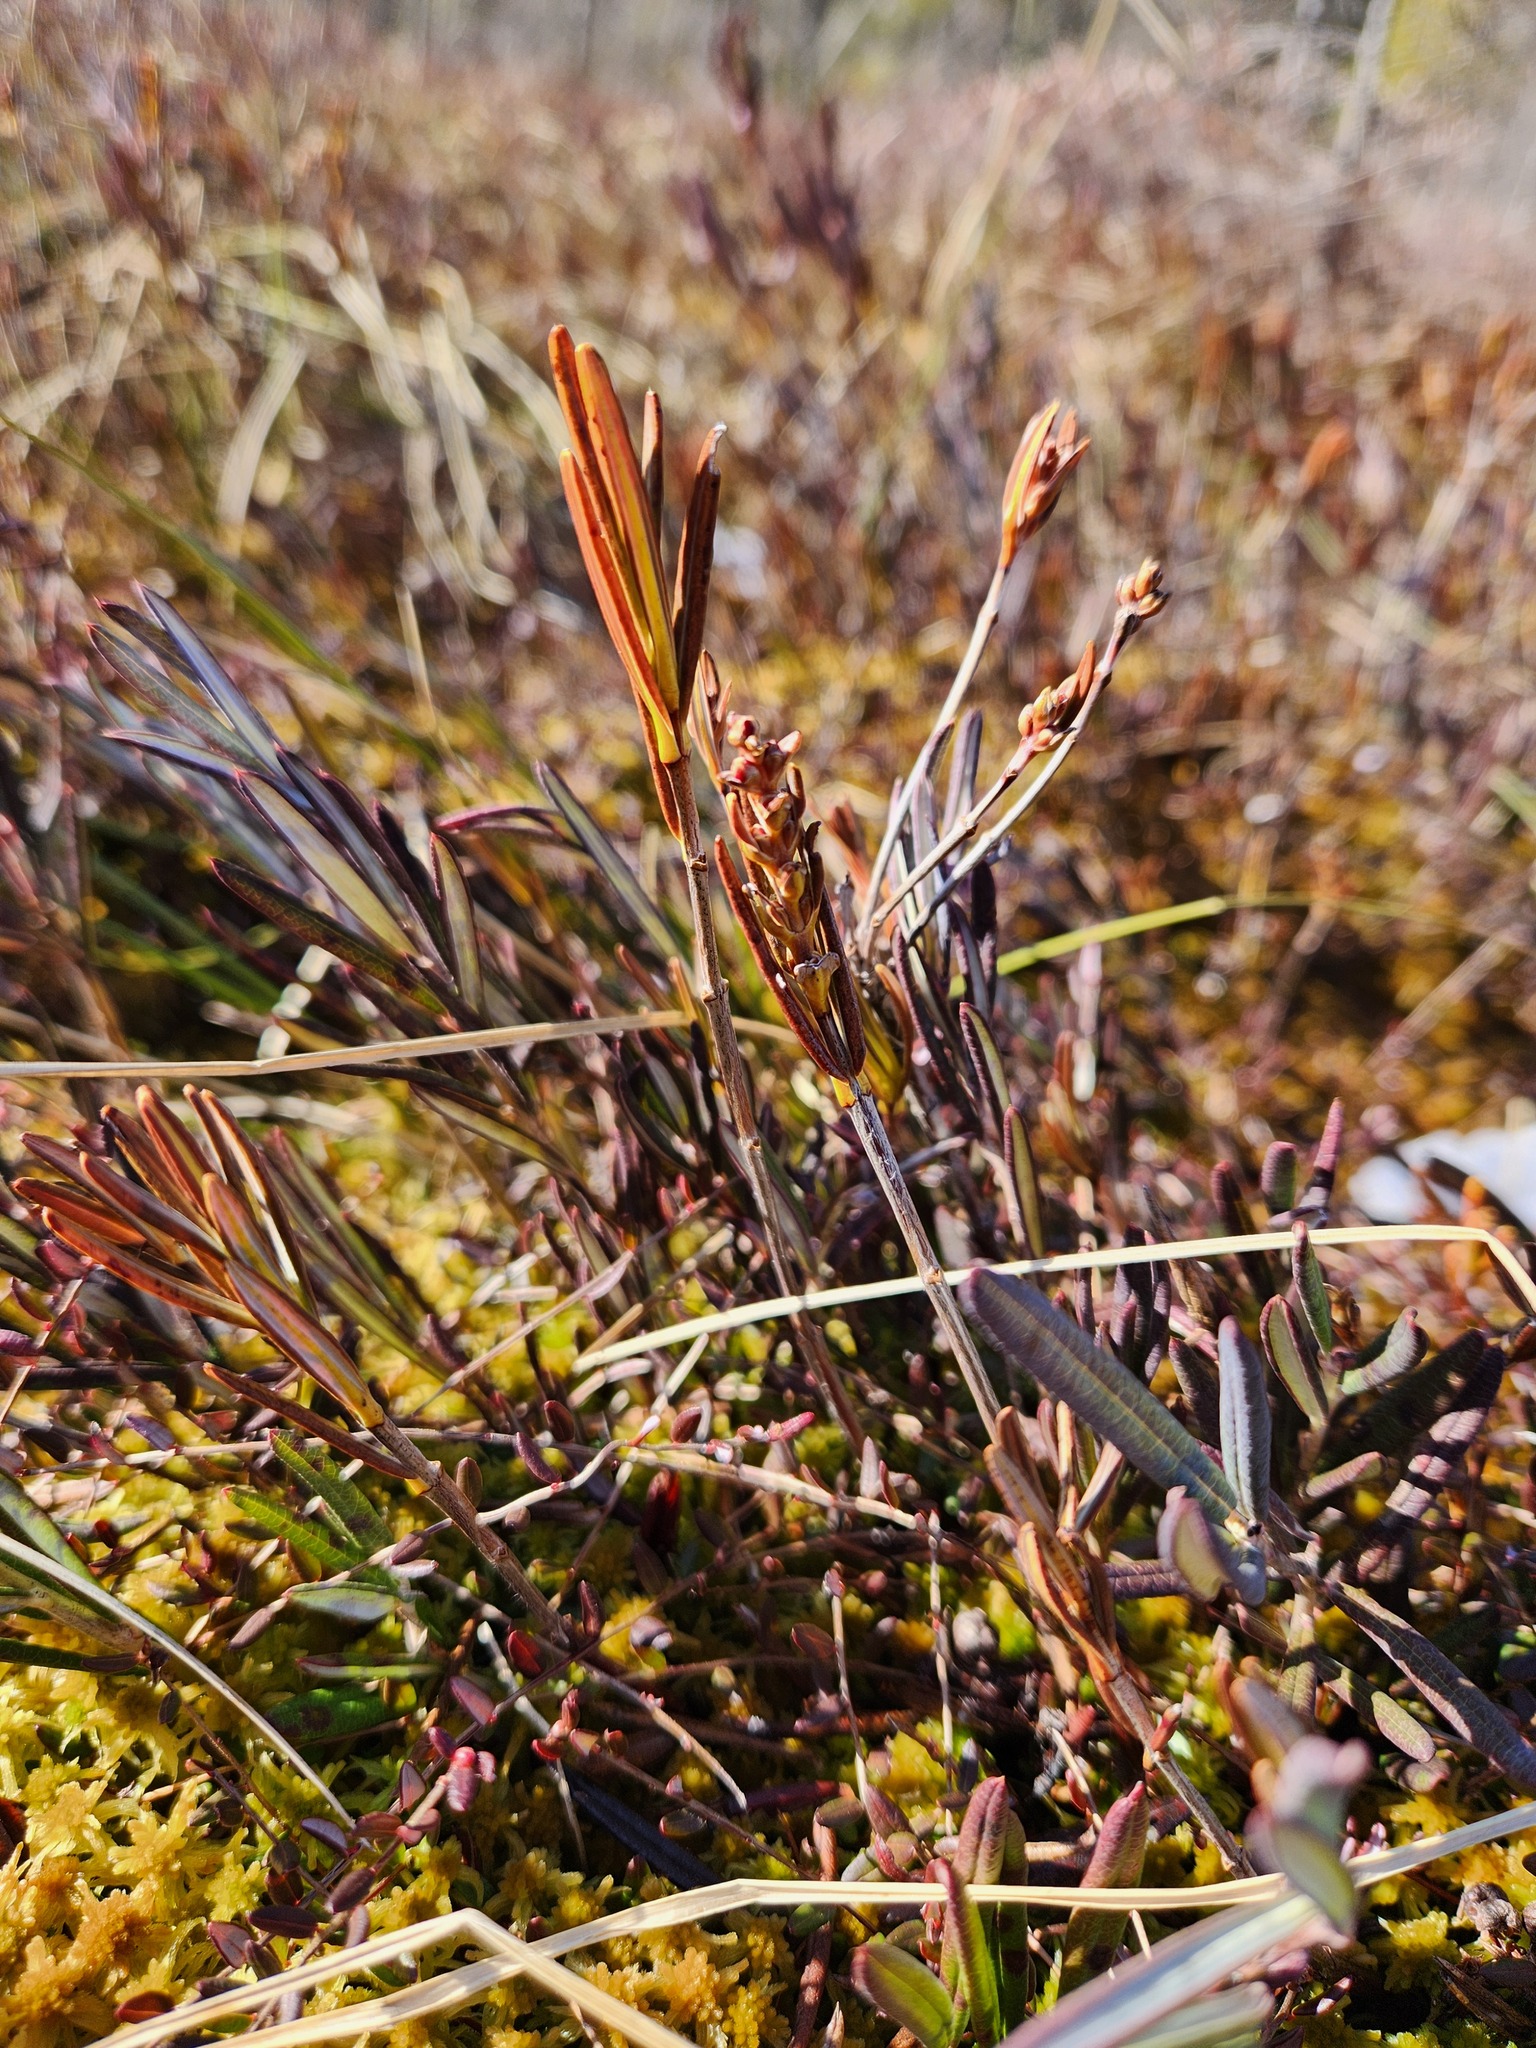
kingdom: Plantae
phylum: Tracheophyta
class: Magnoliopsida
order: Ericales
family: Ericaceae
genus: Andromeda
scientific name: Andromeda polifolia
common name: Bog-rosemary
